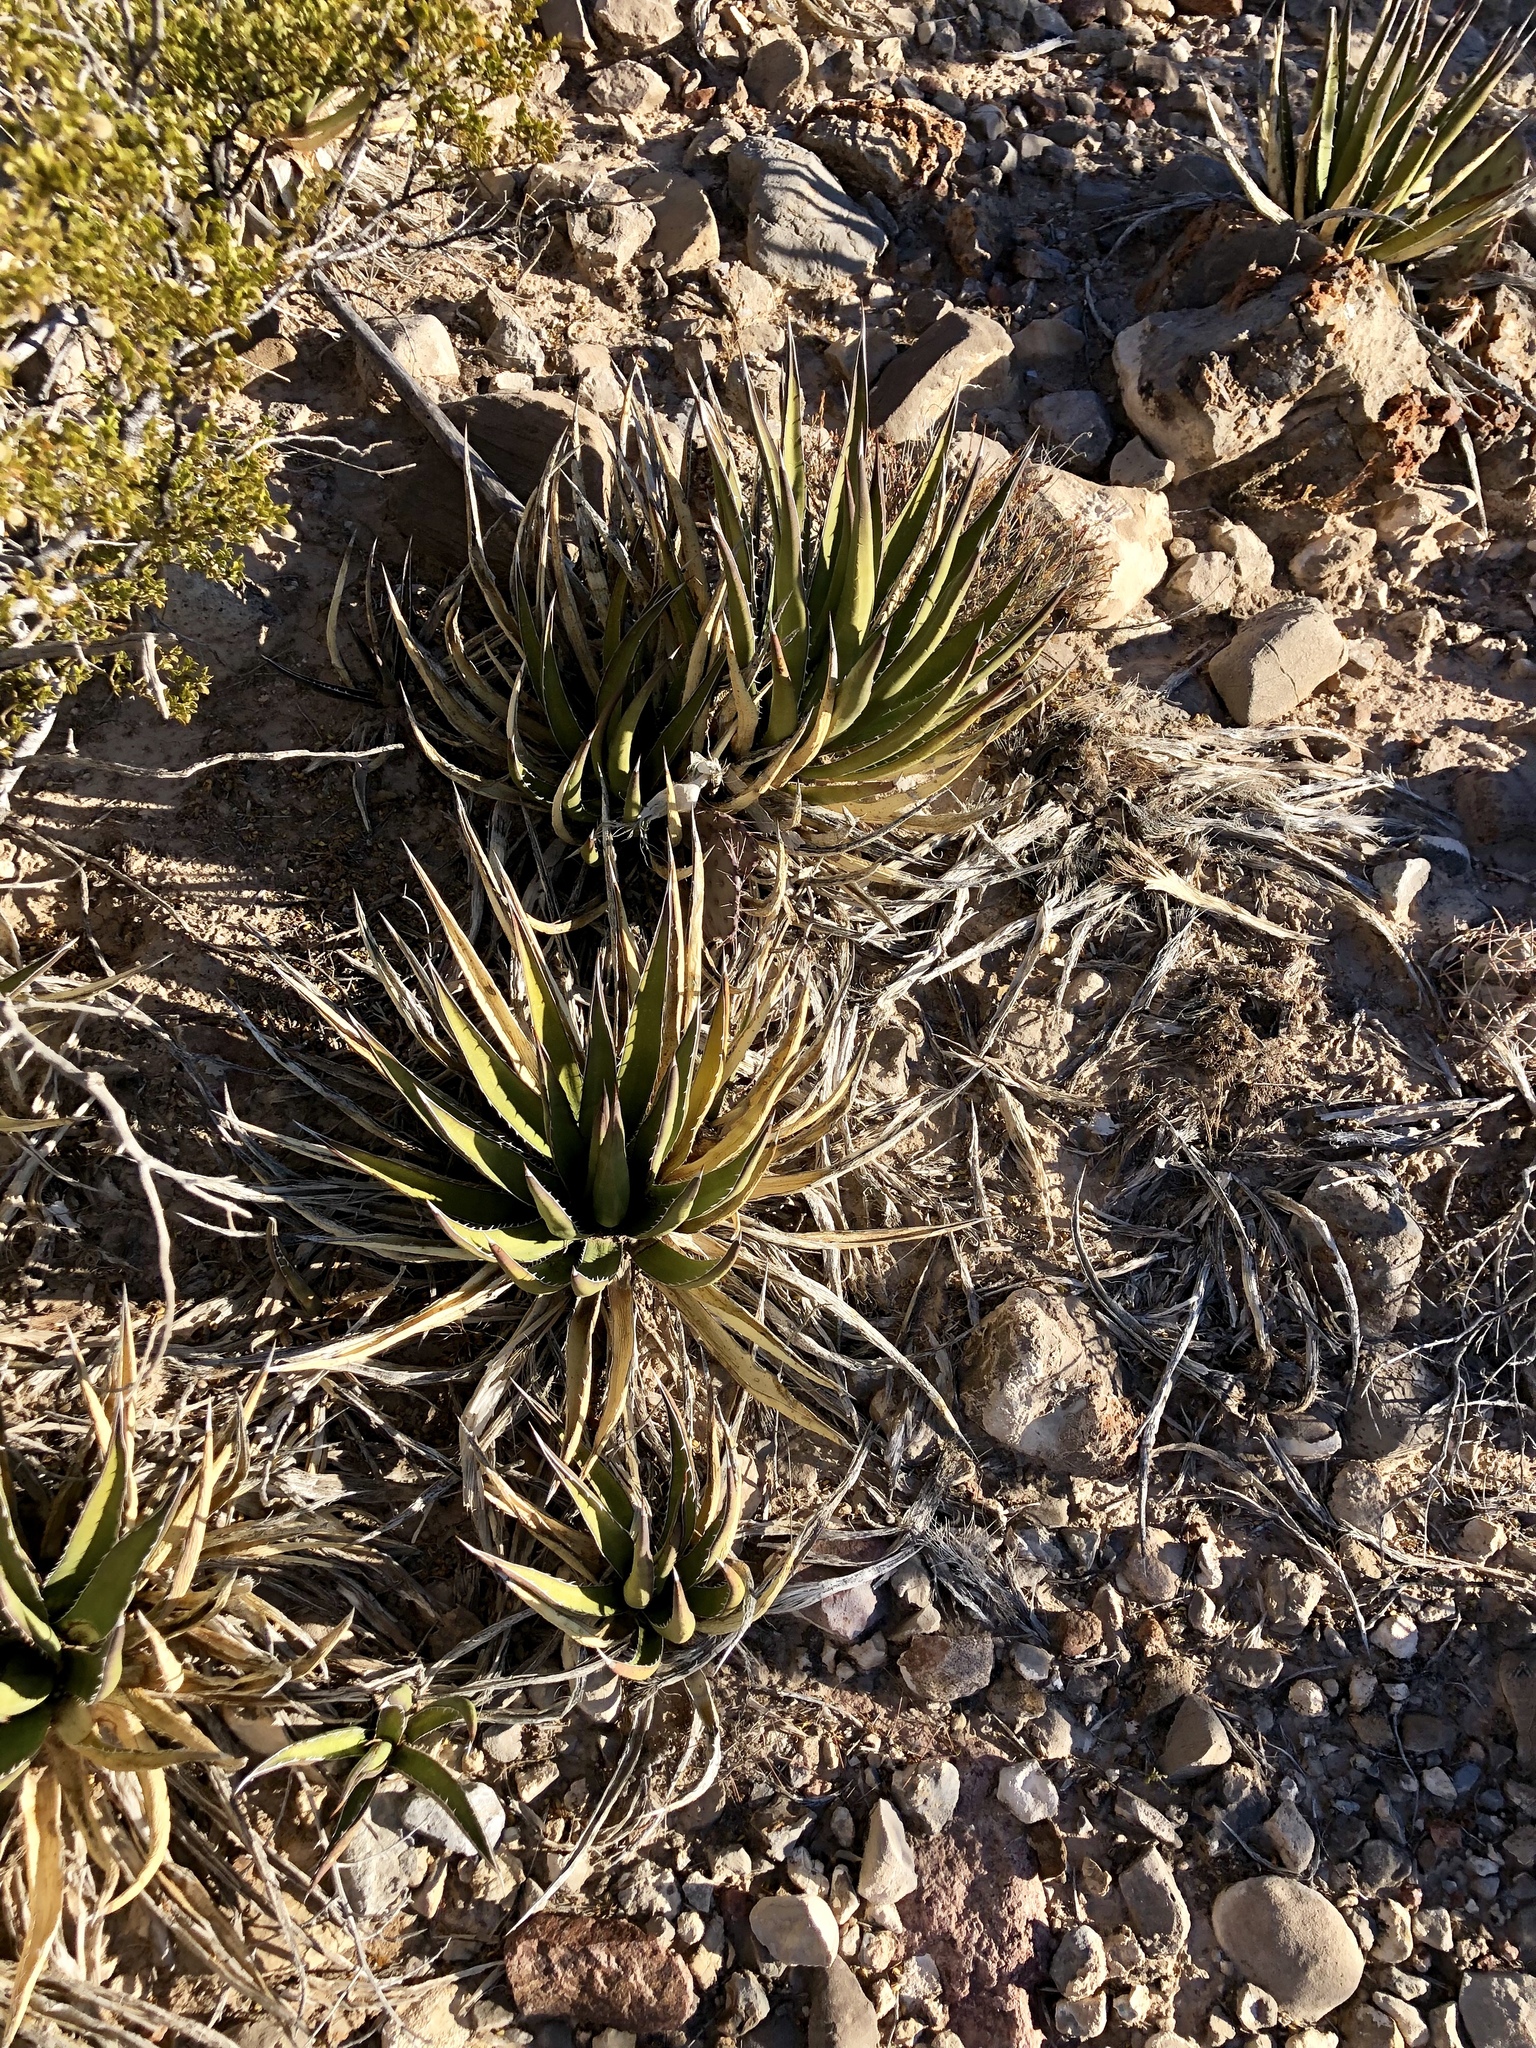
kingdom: Plantae
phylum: Tracheophyta
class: Liliopsida
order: Asparagales
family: Asparagaceae
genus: Agave
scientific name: Agave lechuguilla
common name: Lecheguilla agave
